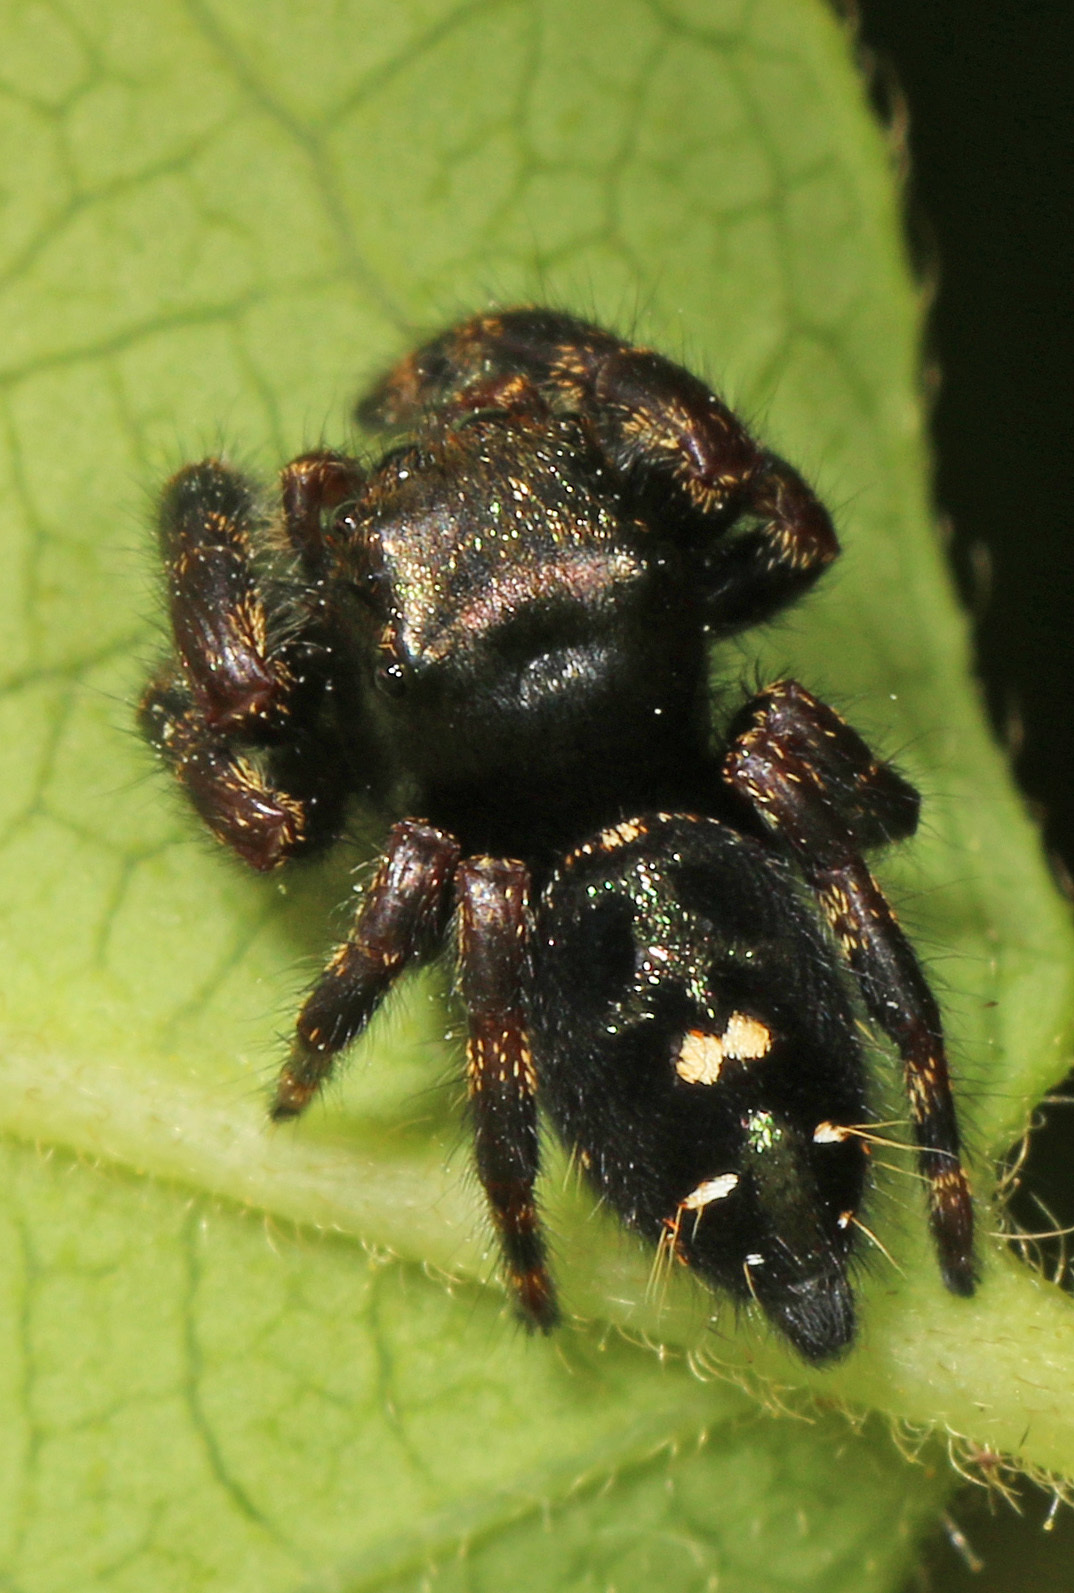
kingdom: Animalia
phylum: Arthropoda
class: Arachnida
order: Araneae
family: Salticidae
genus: Phidippus
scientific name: Phidippus audax
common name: Bold jumper
